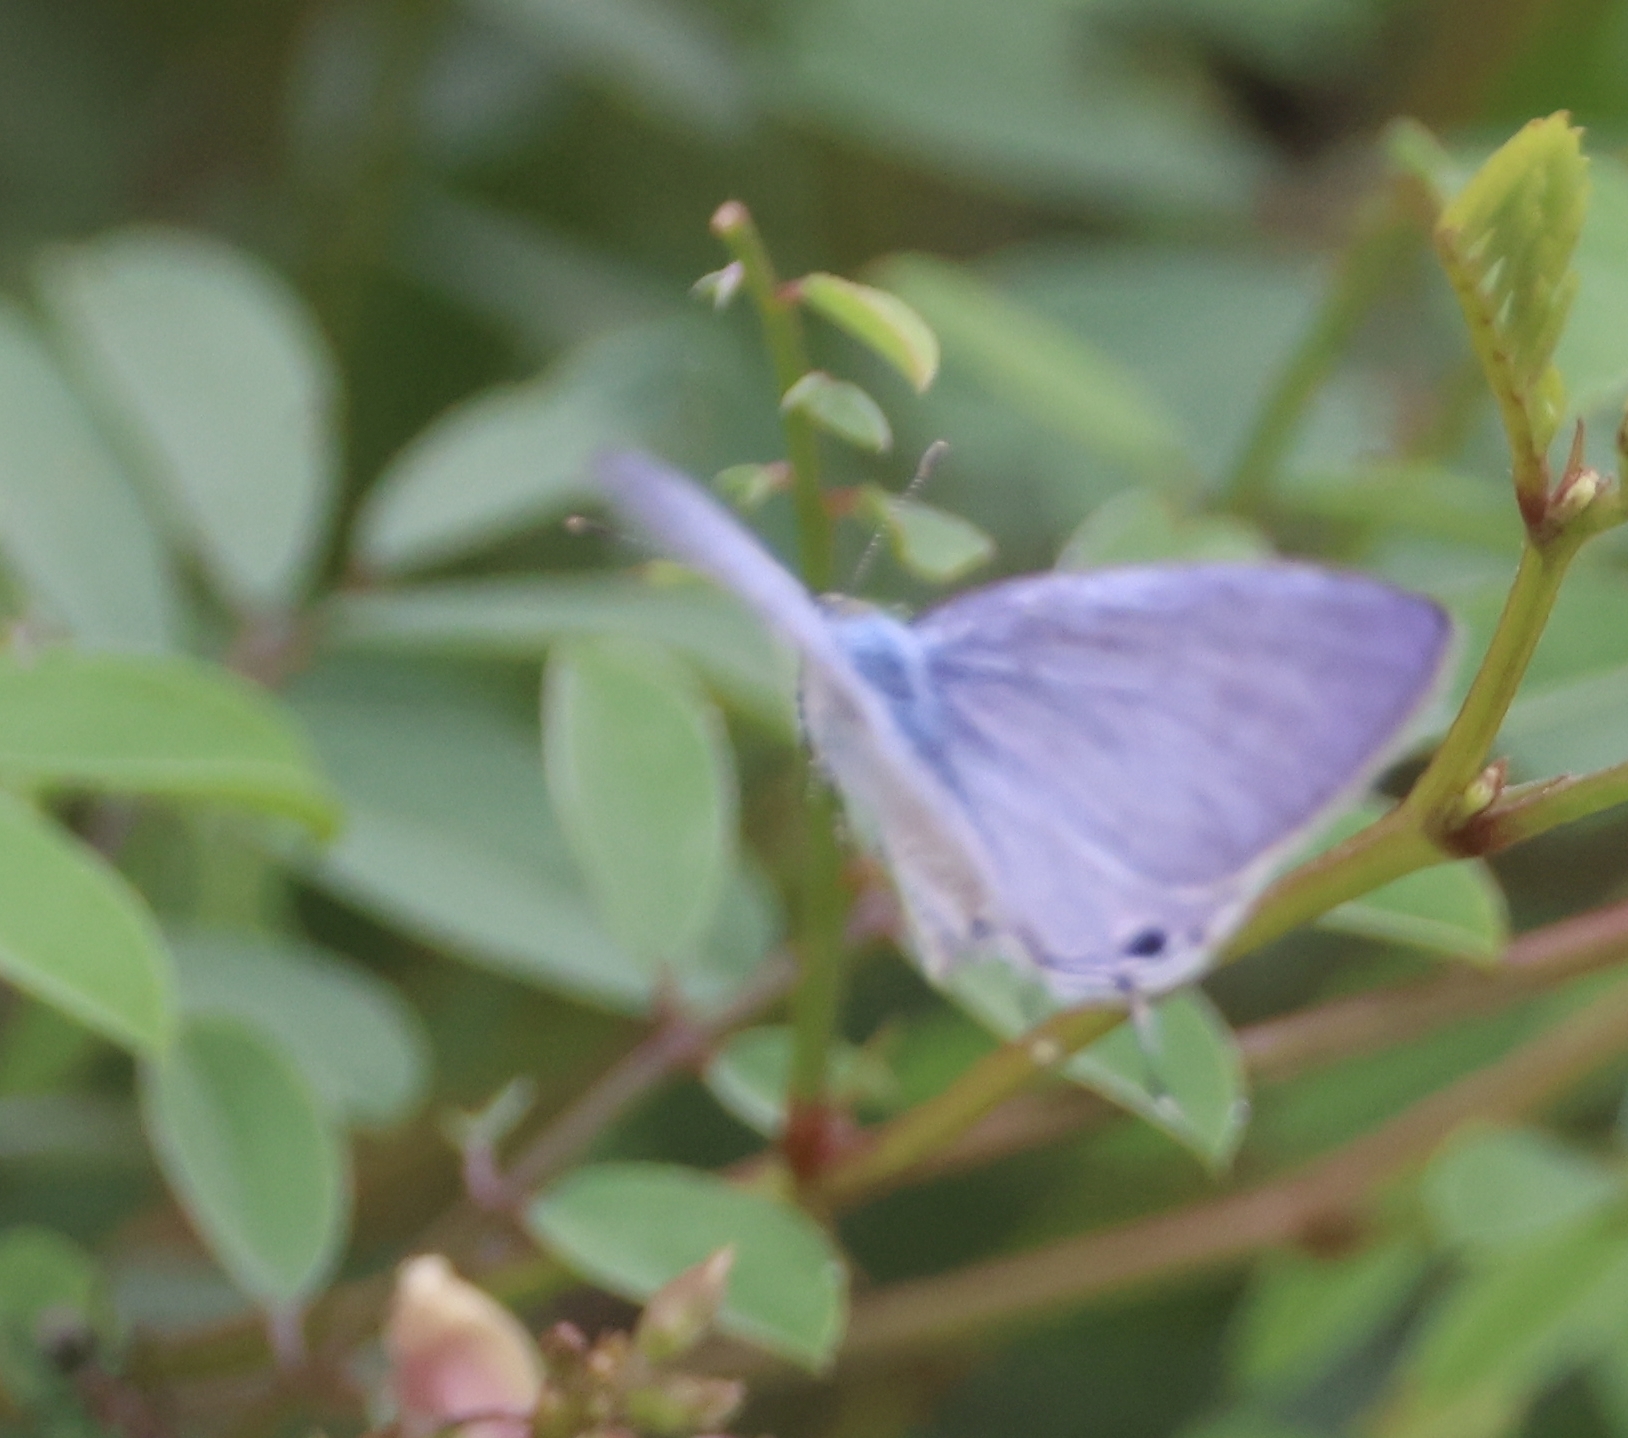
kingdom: Animalia
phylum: Arthropoda
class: Insecta
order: Lepidoptera
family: Lycaenidae
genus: Catochrysops
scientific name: Catochrysops strabo
